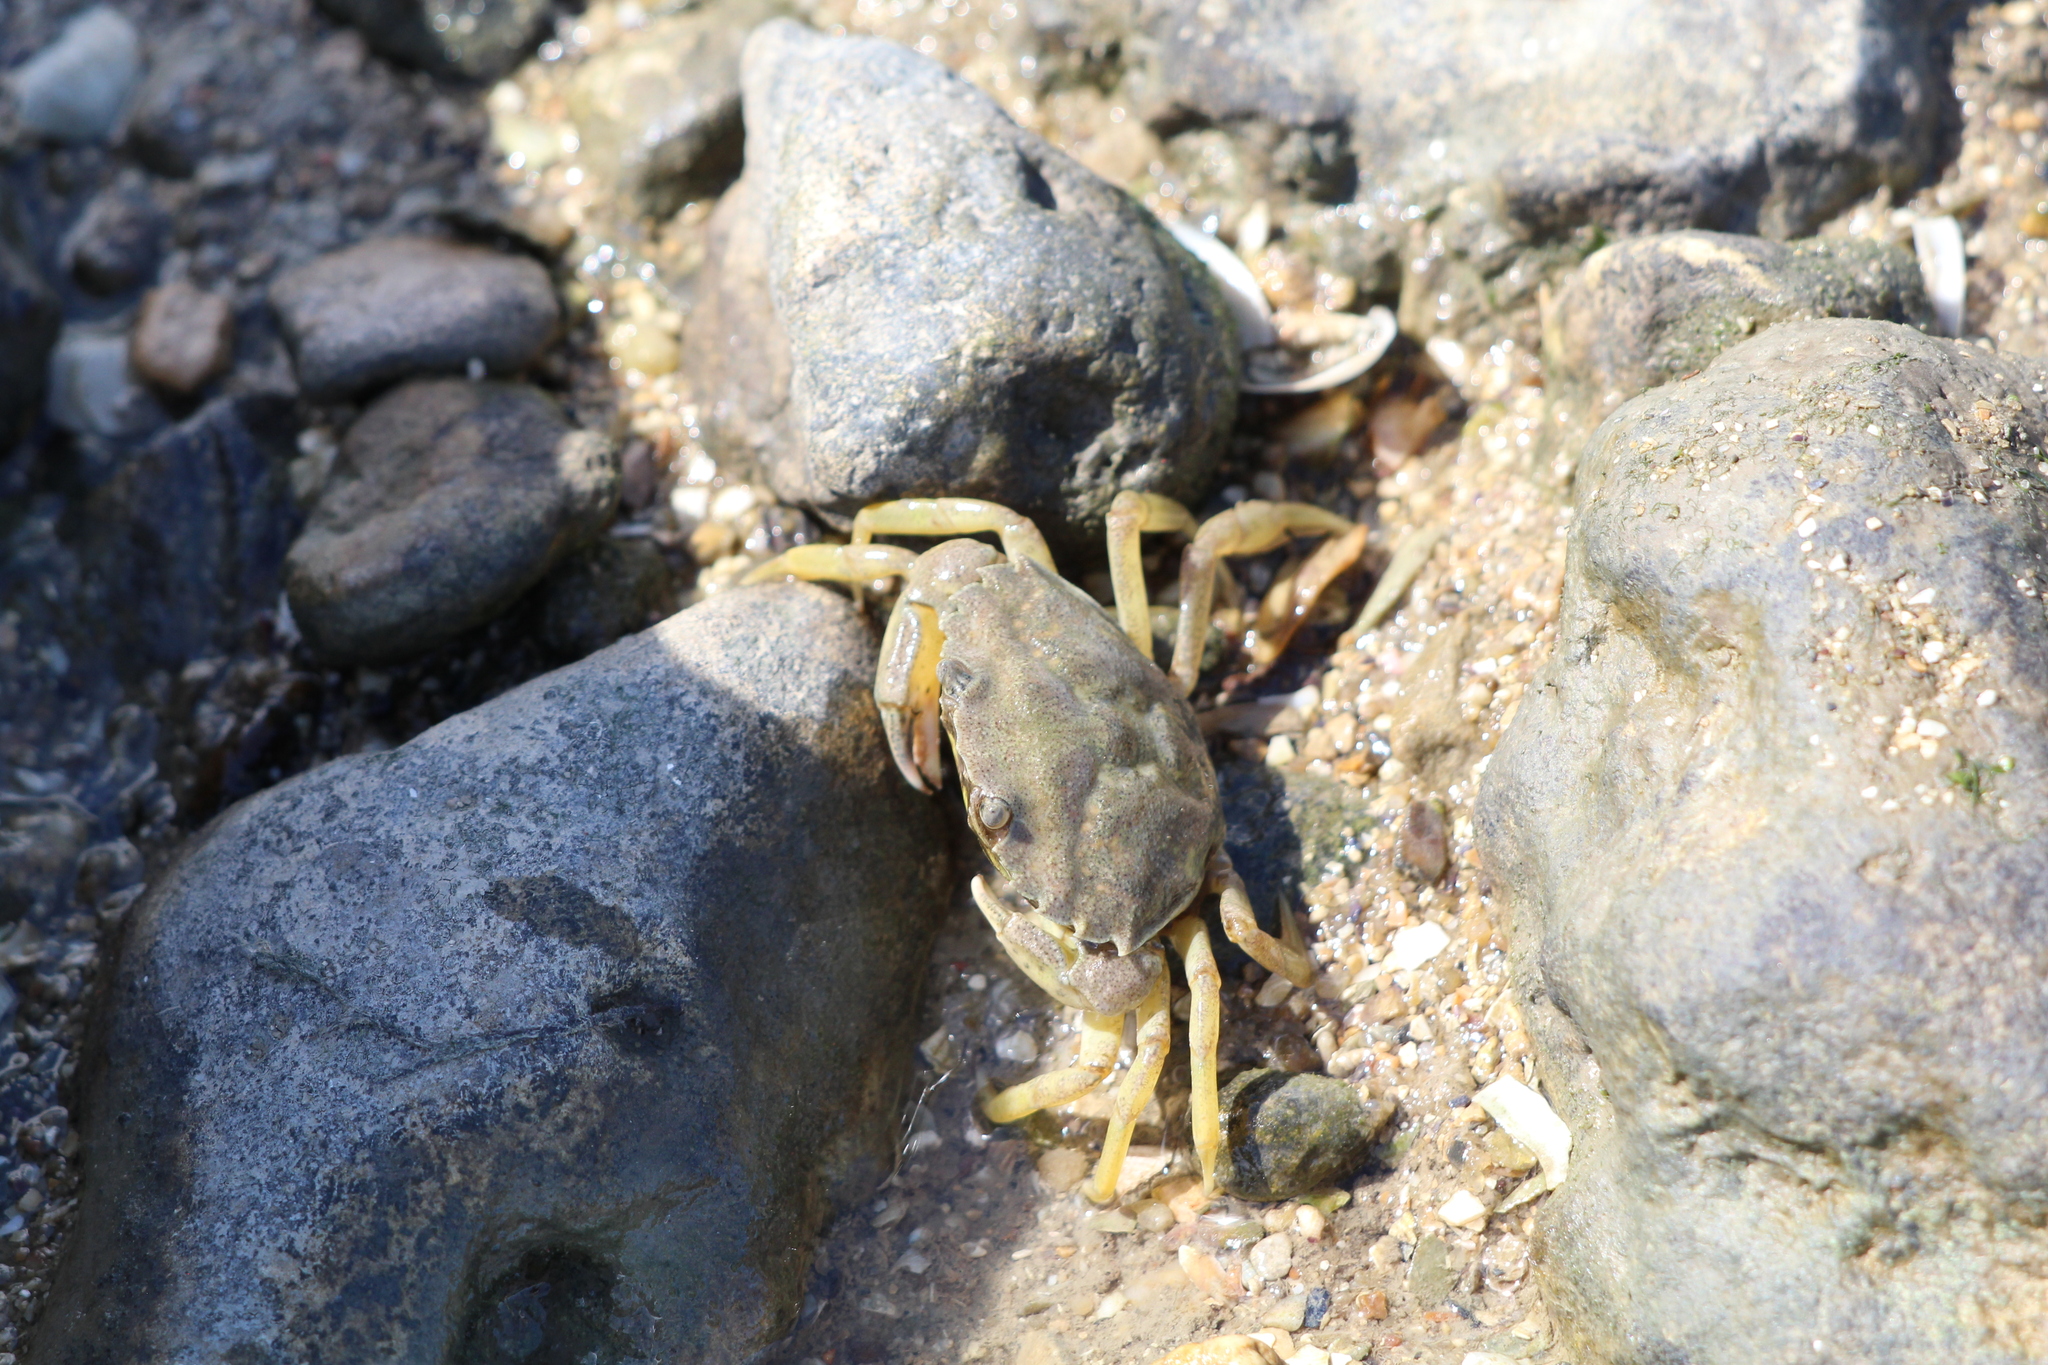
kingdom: Animalia
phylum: Arthropoda
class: Malacostraca
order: Decapoda
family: Carcinidae
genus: Carcinus
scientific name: Carcinus maenas
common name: European green crab
